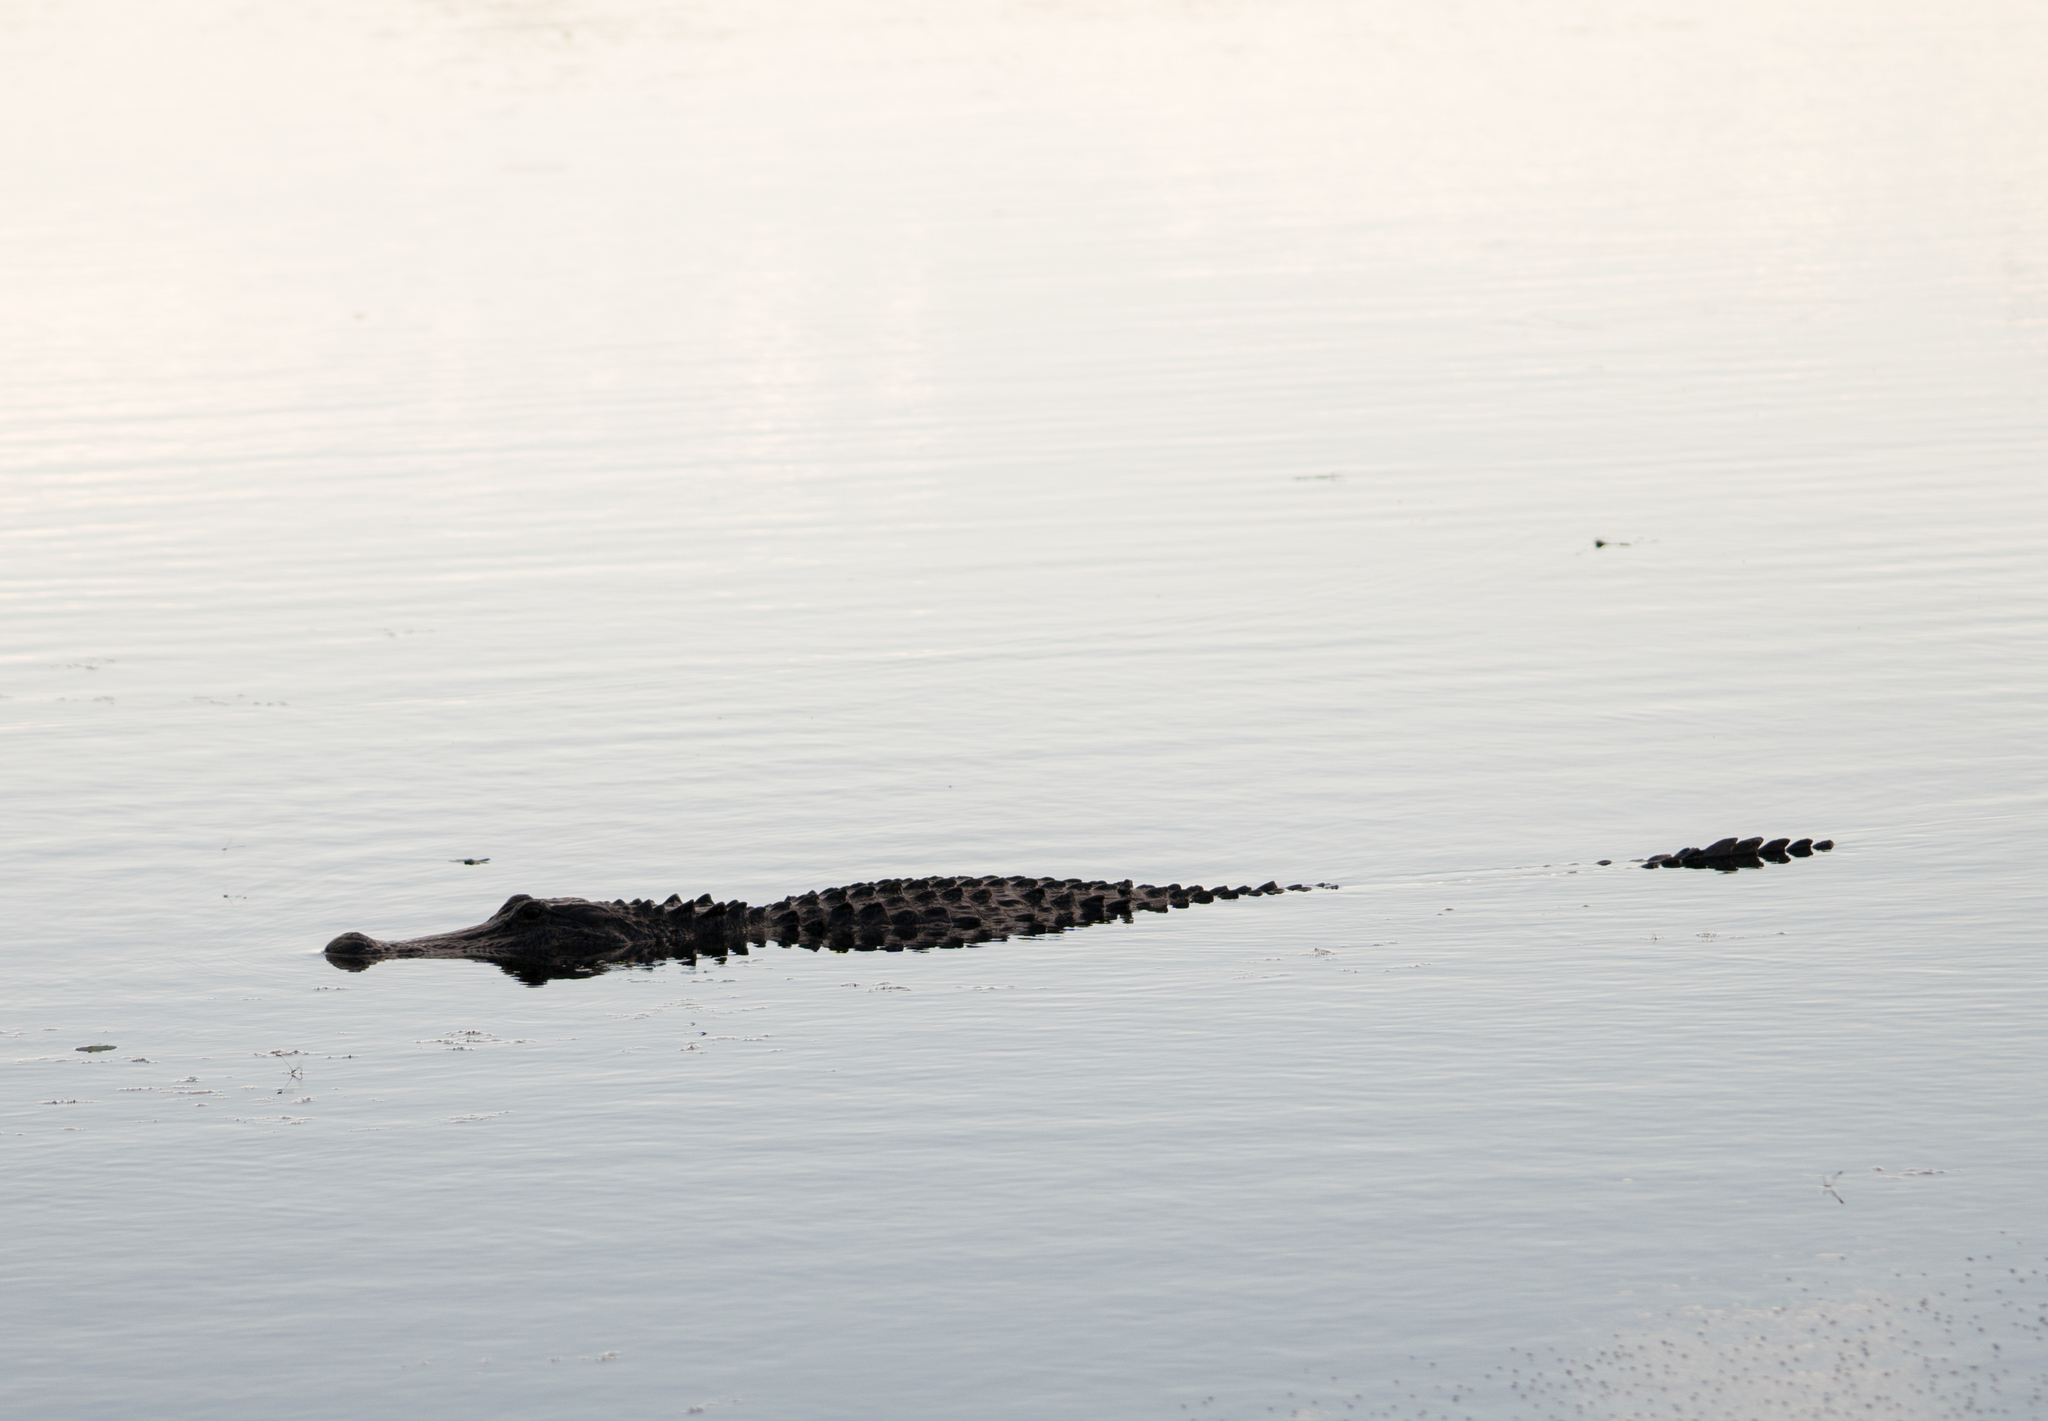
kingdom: Animalia
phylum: Chordata
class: Crocodylia
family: Alligatoridae
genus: Alligator
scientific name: Alligator mississippiensis
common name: American alligator
